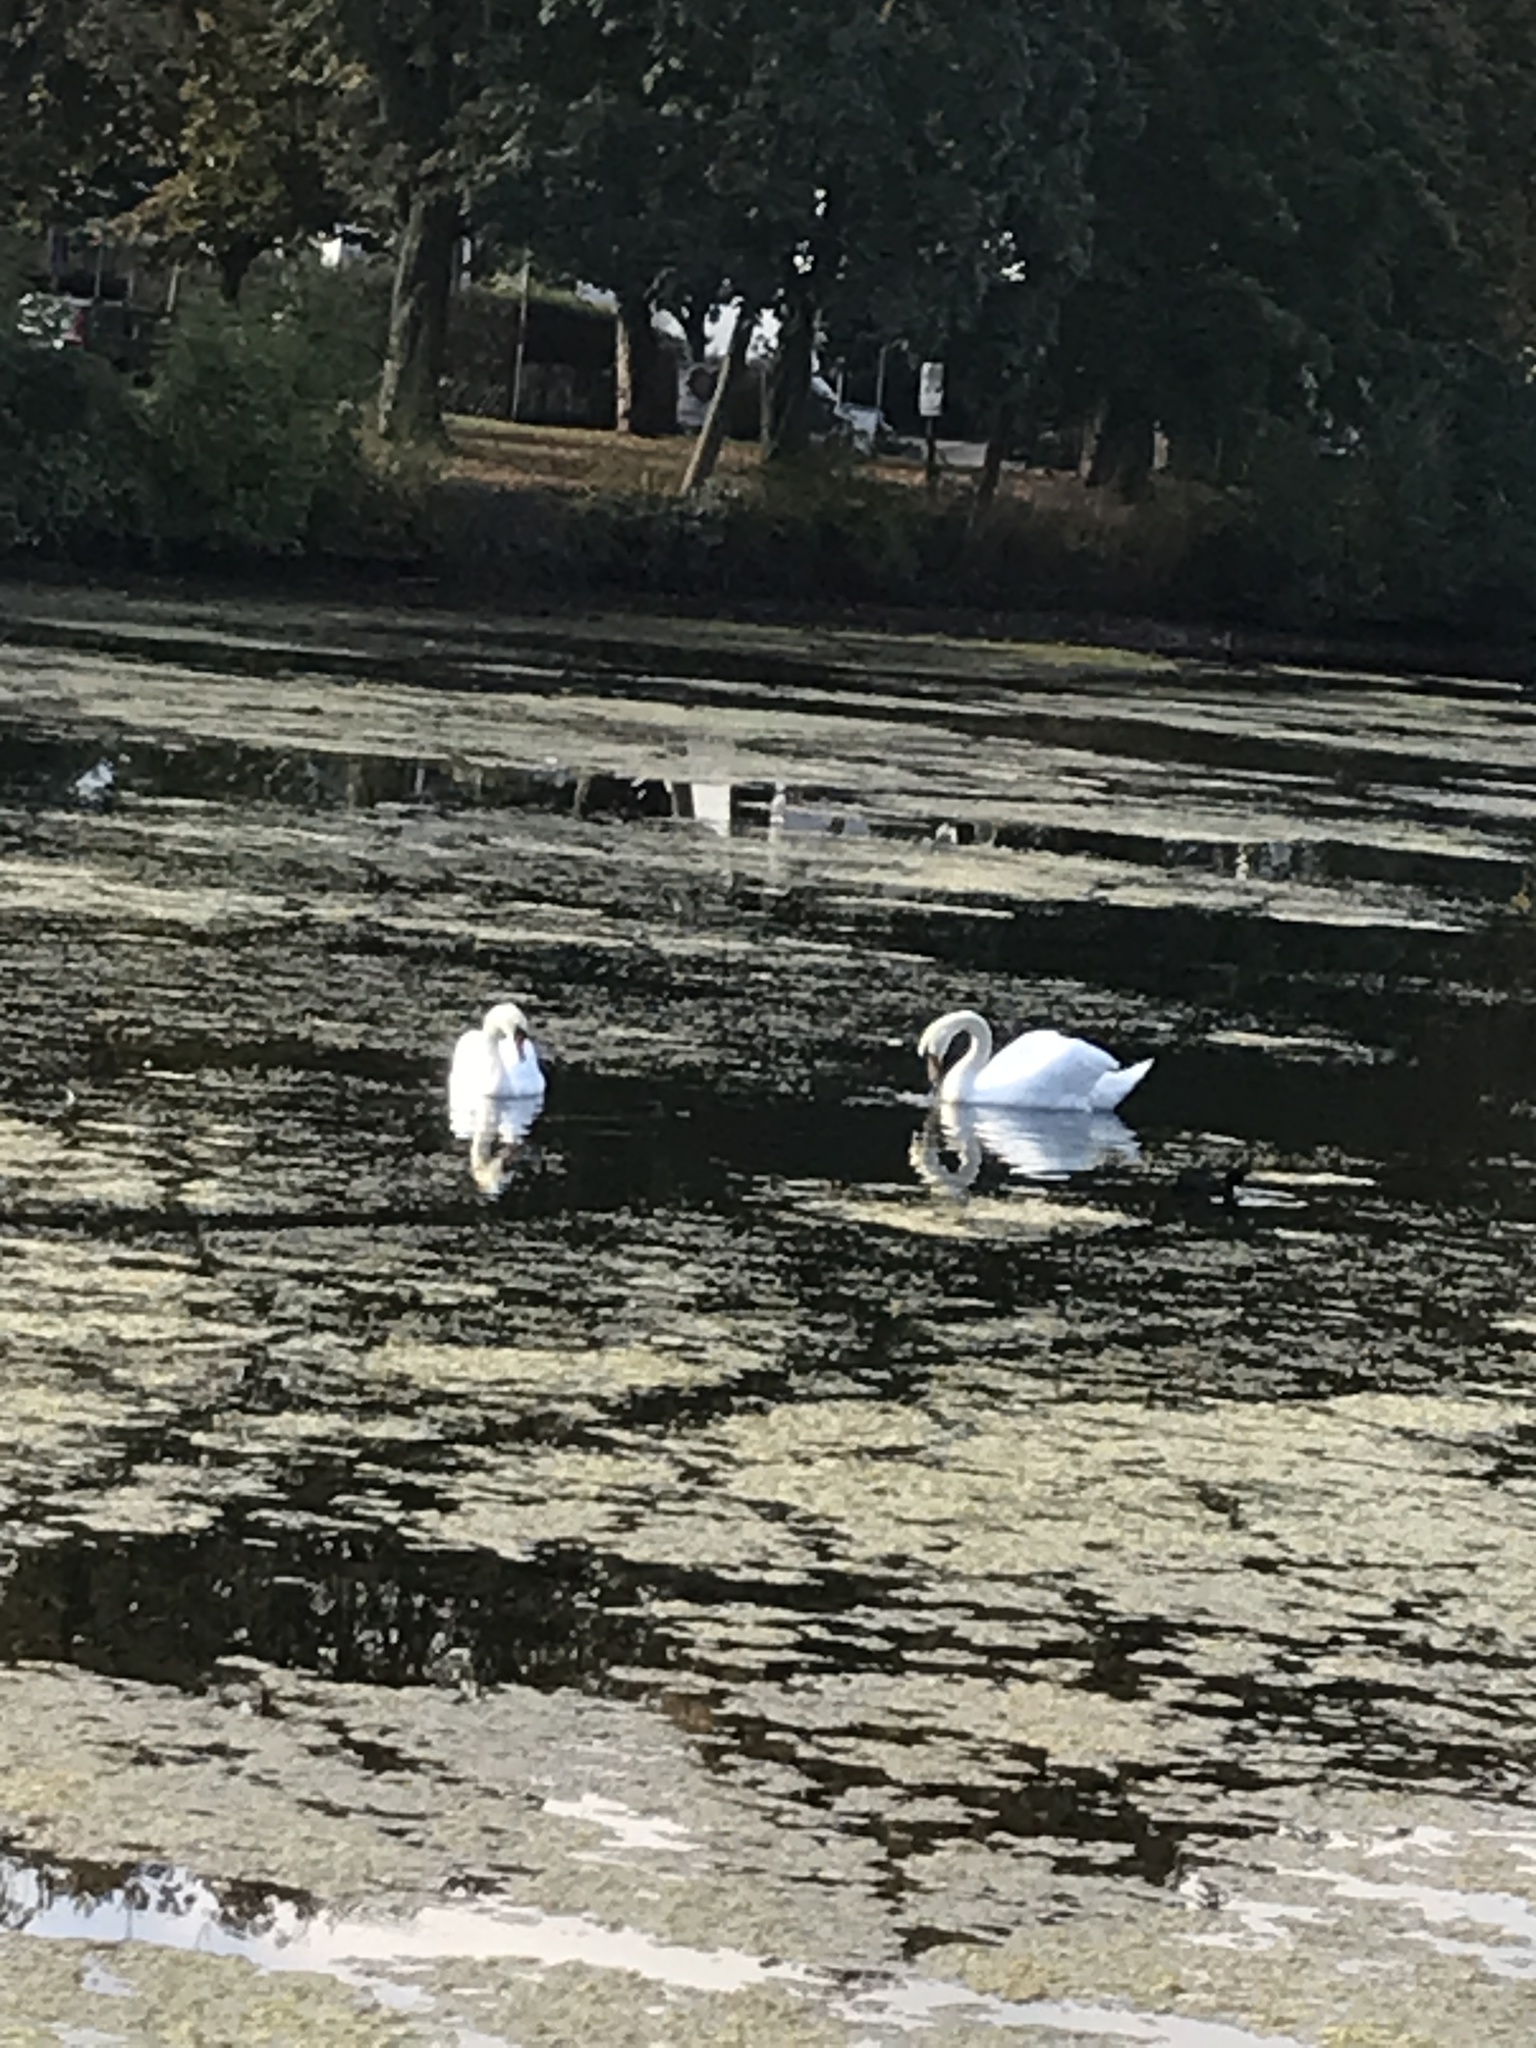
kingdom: Animalia
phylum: Chordata
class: Aves
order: Anseriformes
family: Anatidae
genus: Cygnus
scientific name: Cygnus olor
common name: Mute swan
